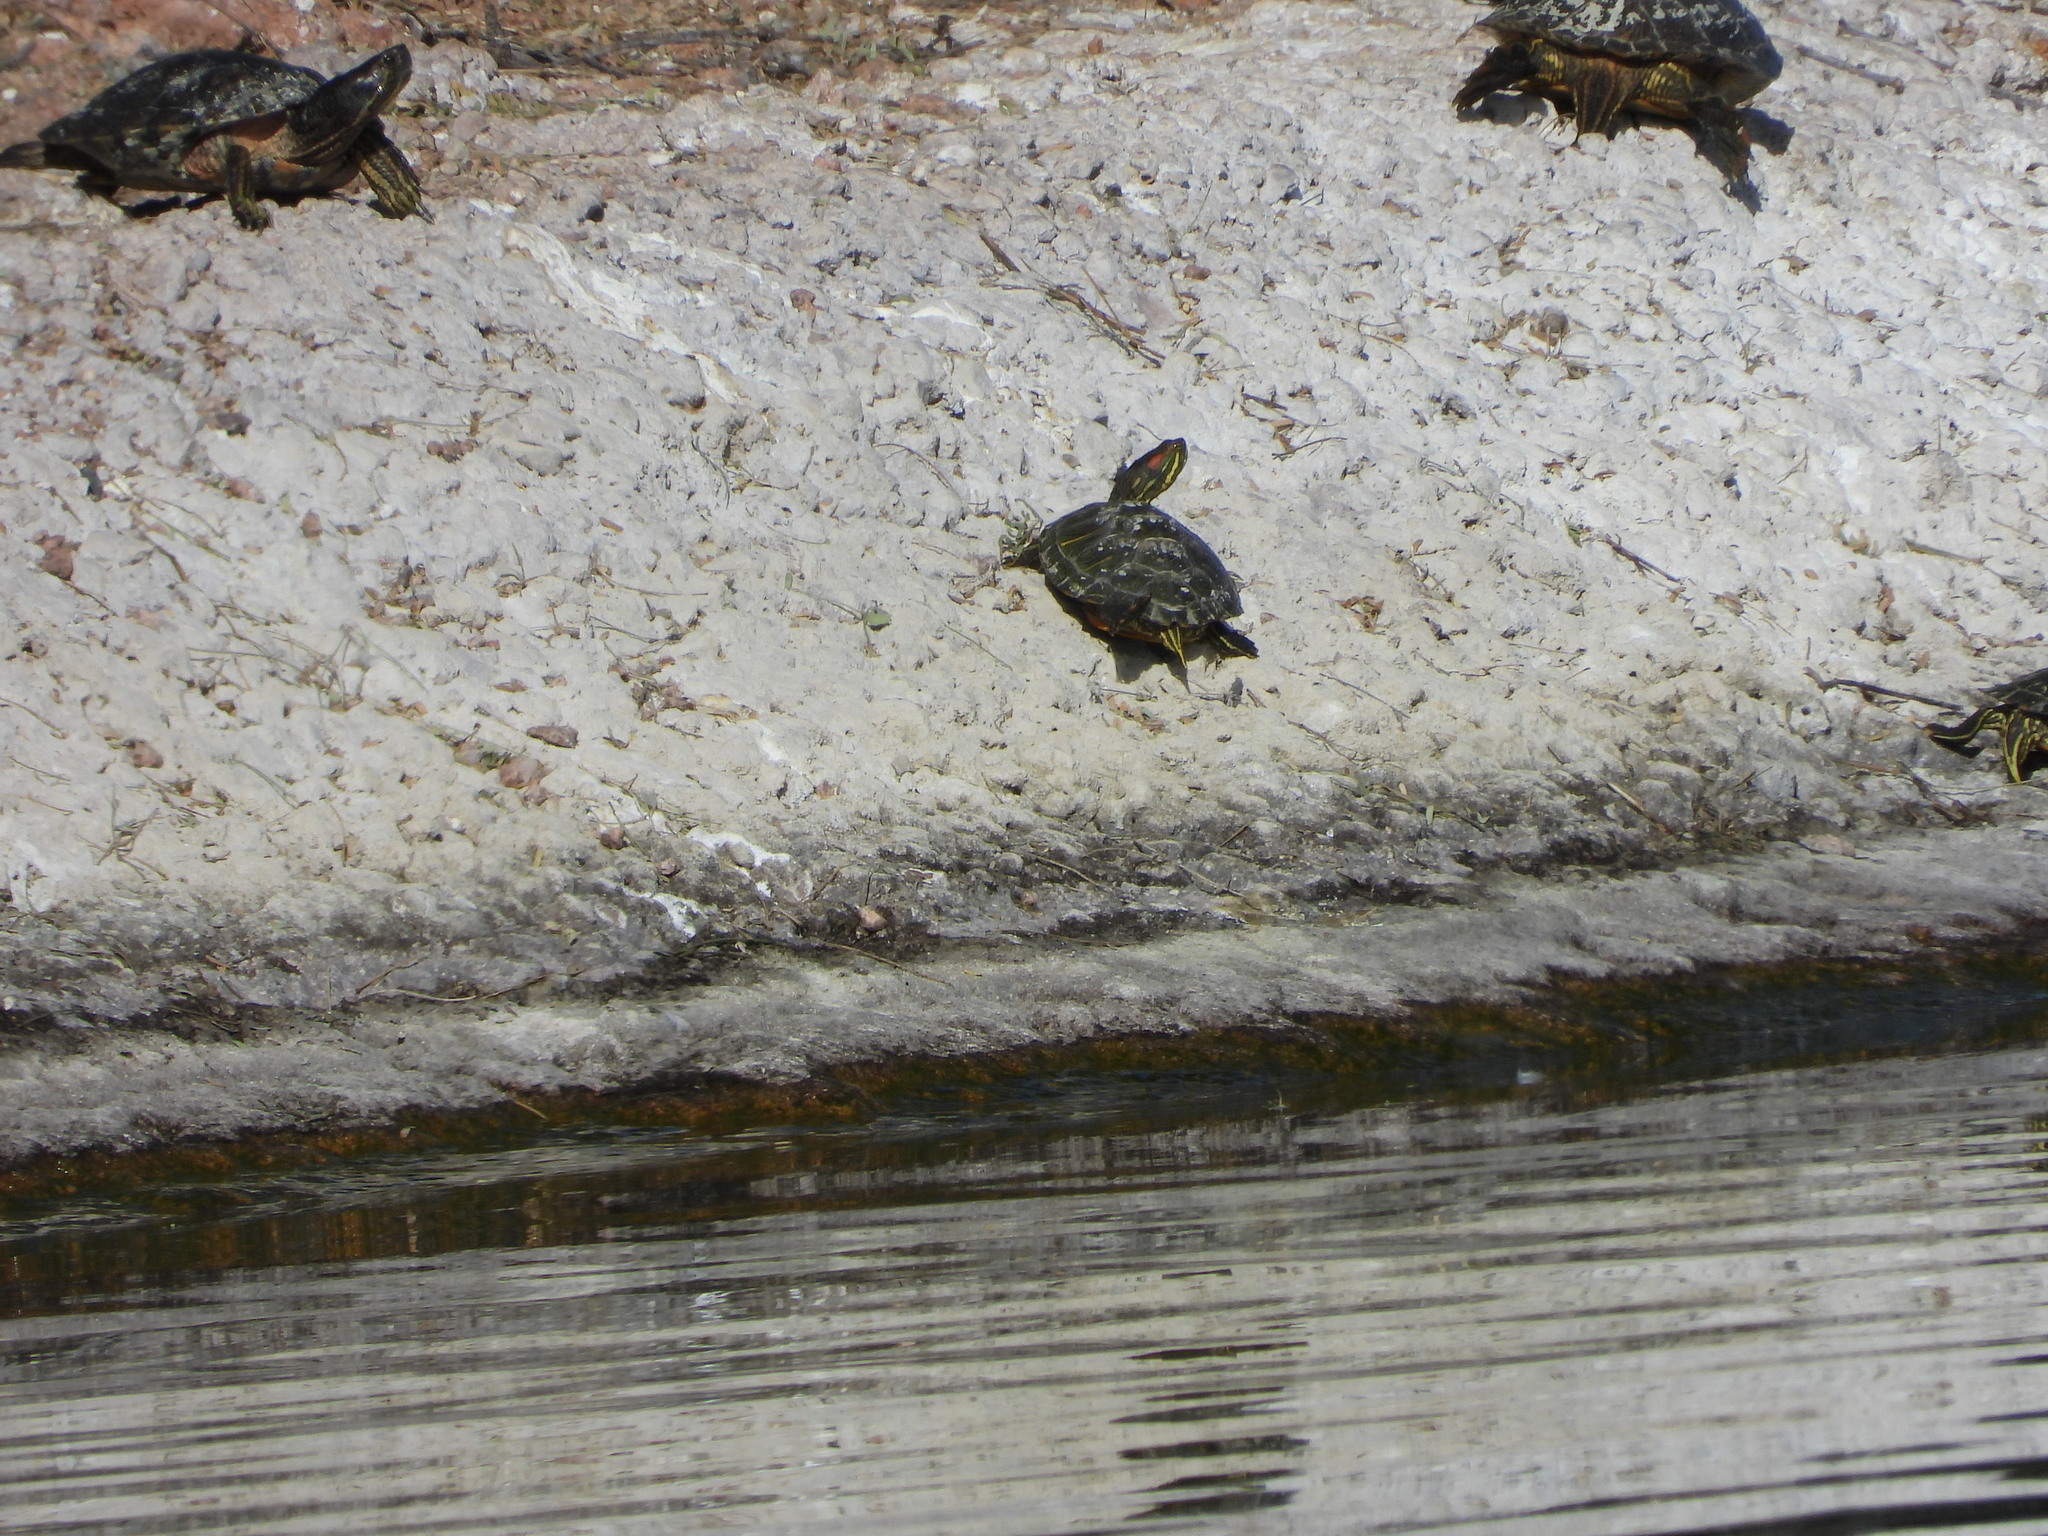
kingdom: Animalia
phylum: Chordata
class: Testudines
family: Emydidae
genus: Trachemys
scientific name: Trachemys scripta
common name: Slider
